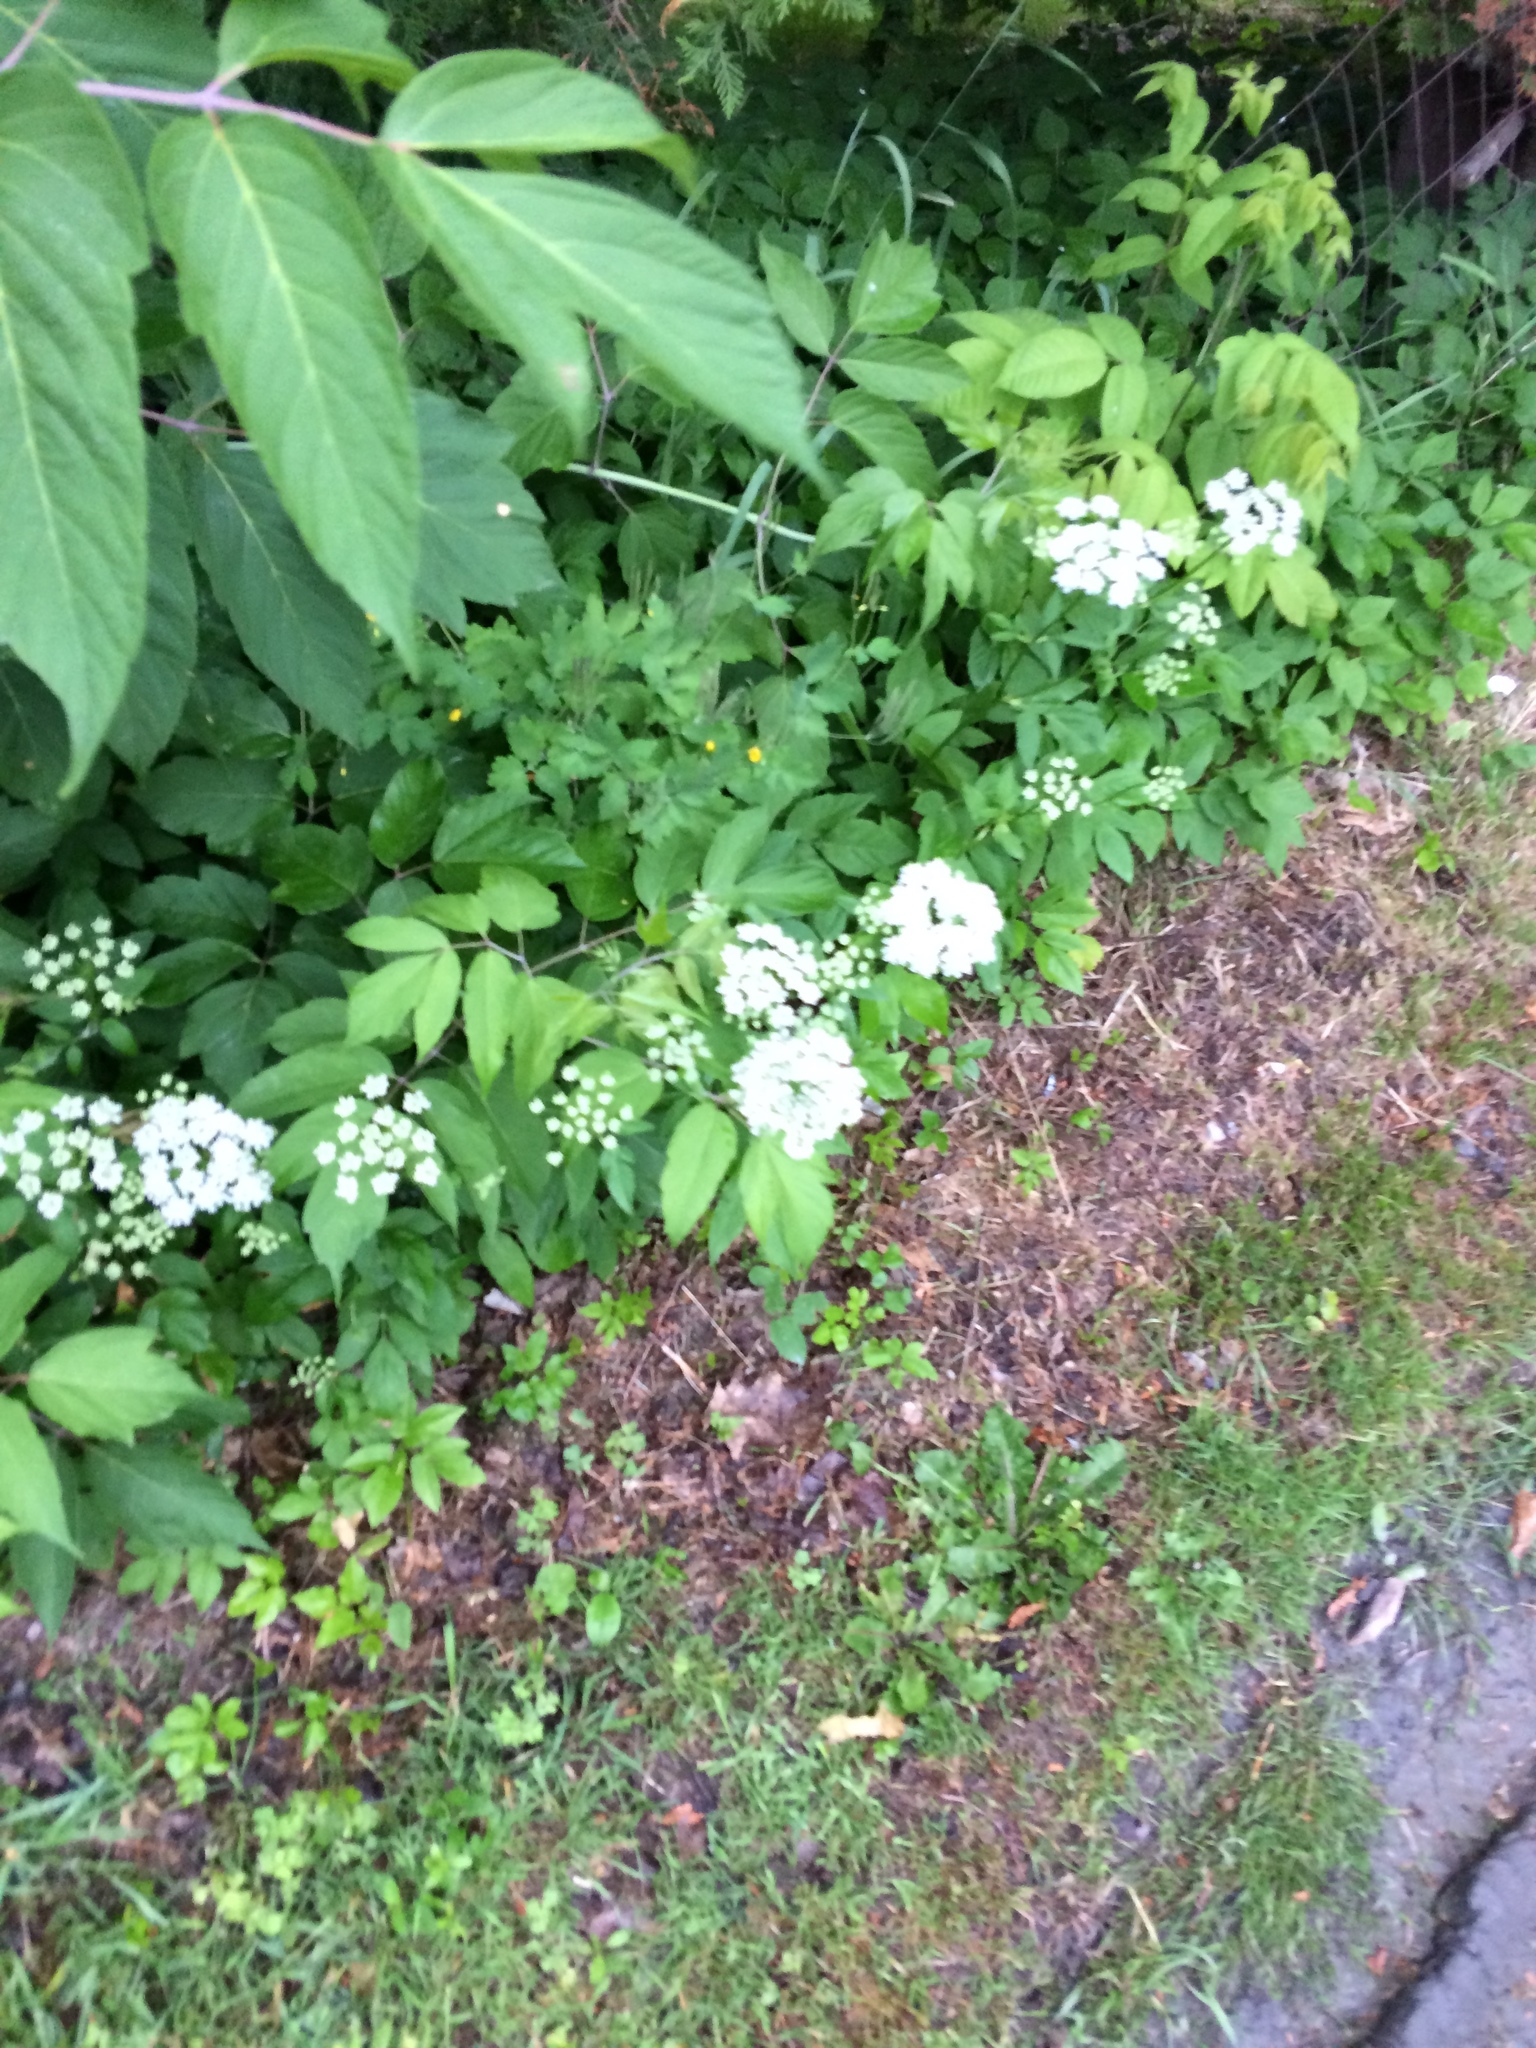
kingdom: Plantae
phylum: Tracheophyta
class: Magnoliopsida
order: Apiales
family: Apiaceae
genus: Aegopodium
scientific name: Aegopodium podagraria
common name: Ground-elder
